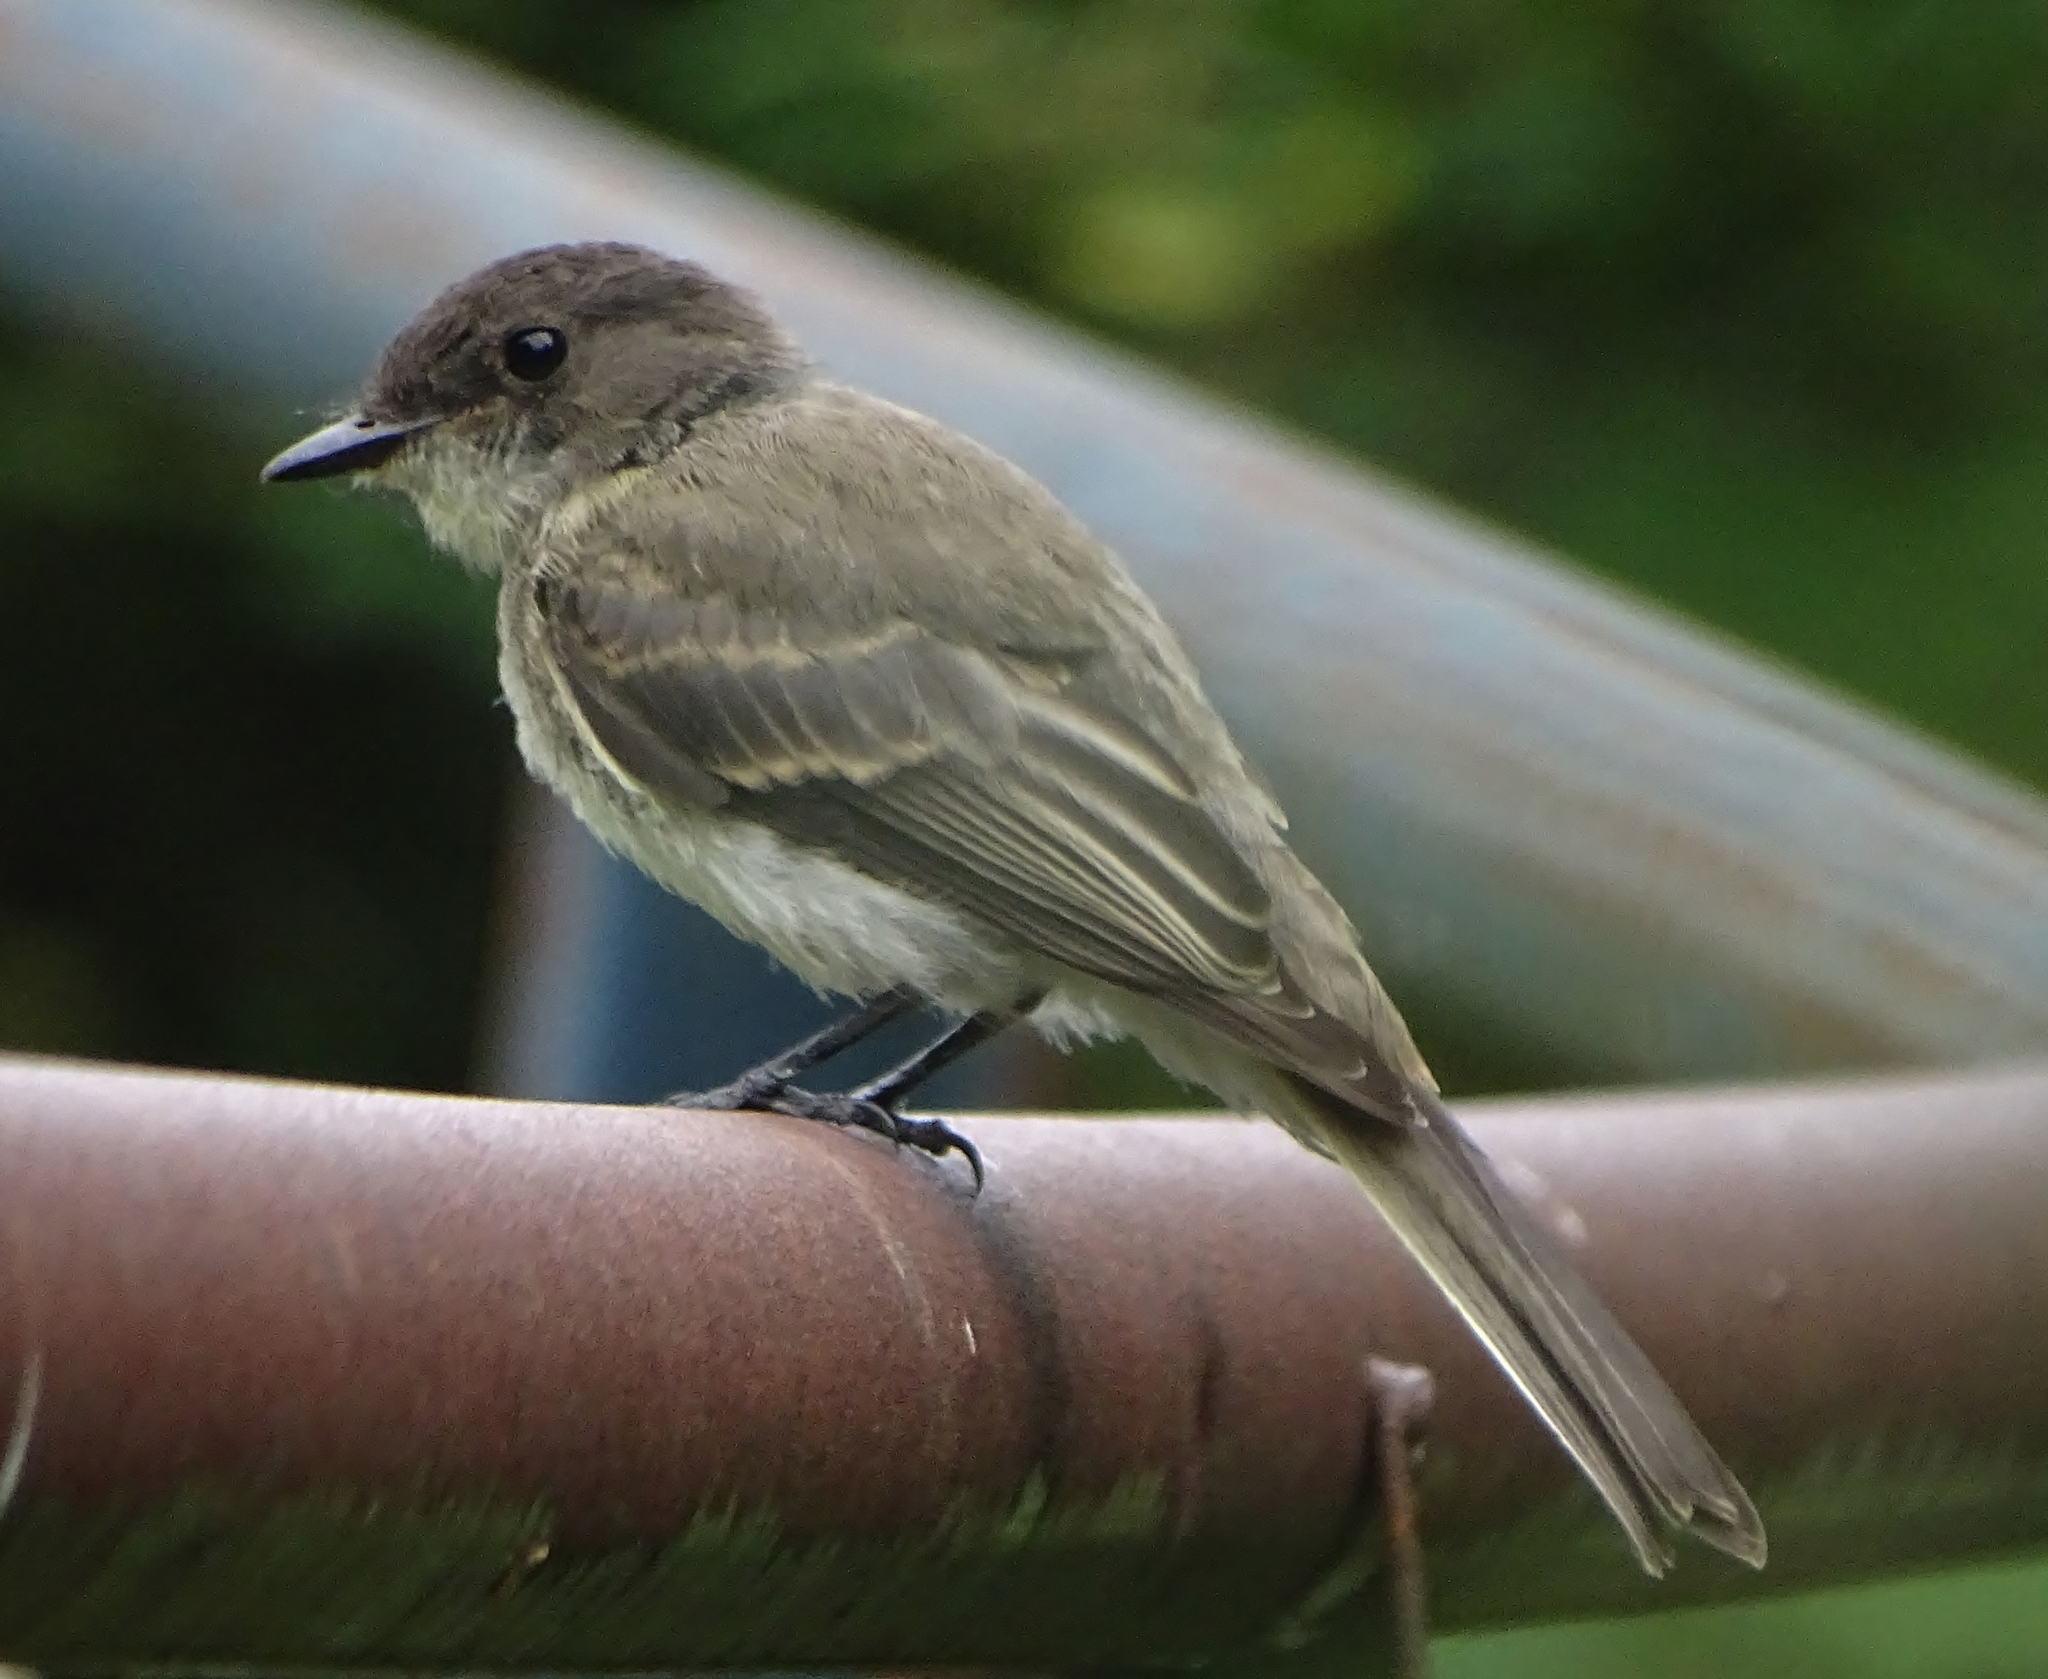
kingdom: Animalia
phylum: Chordata
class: Aves
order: Passeriformes
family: Tyrannidae
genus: Sayornis
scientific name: Sayornis phoebe
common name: Eastern phoebe
